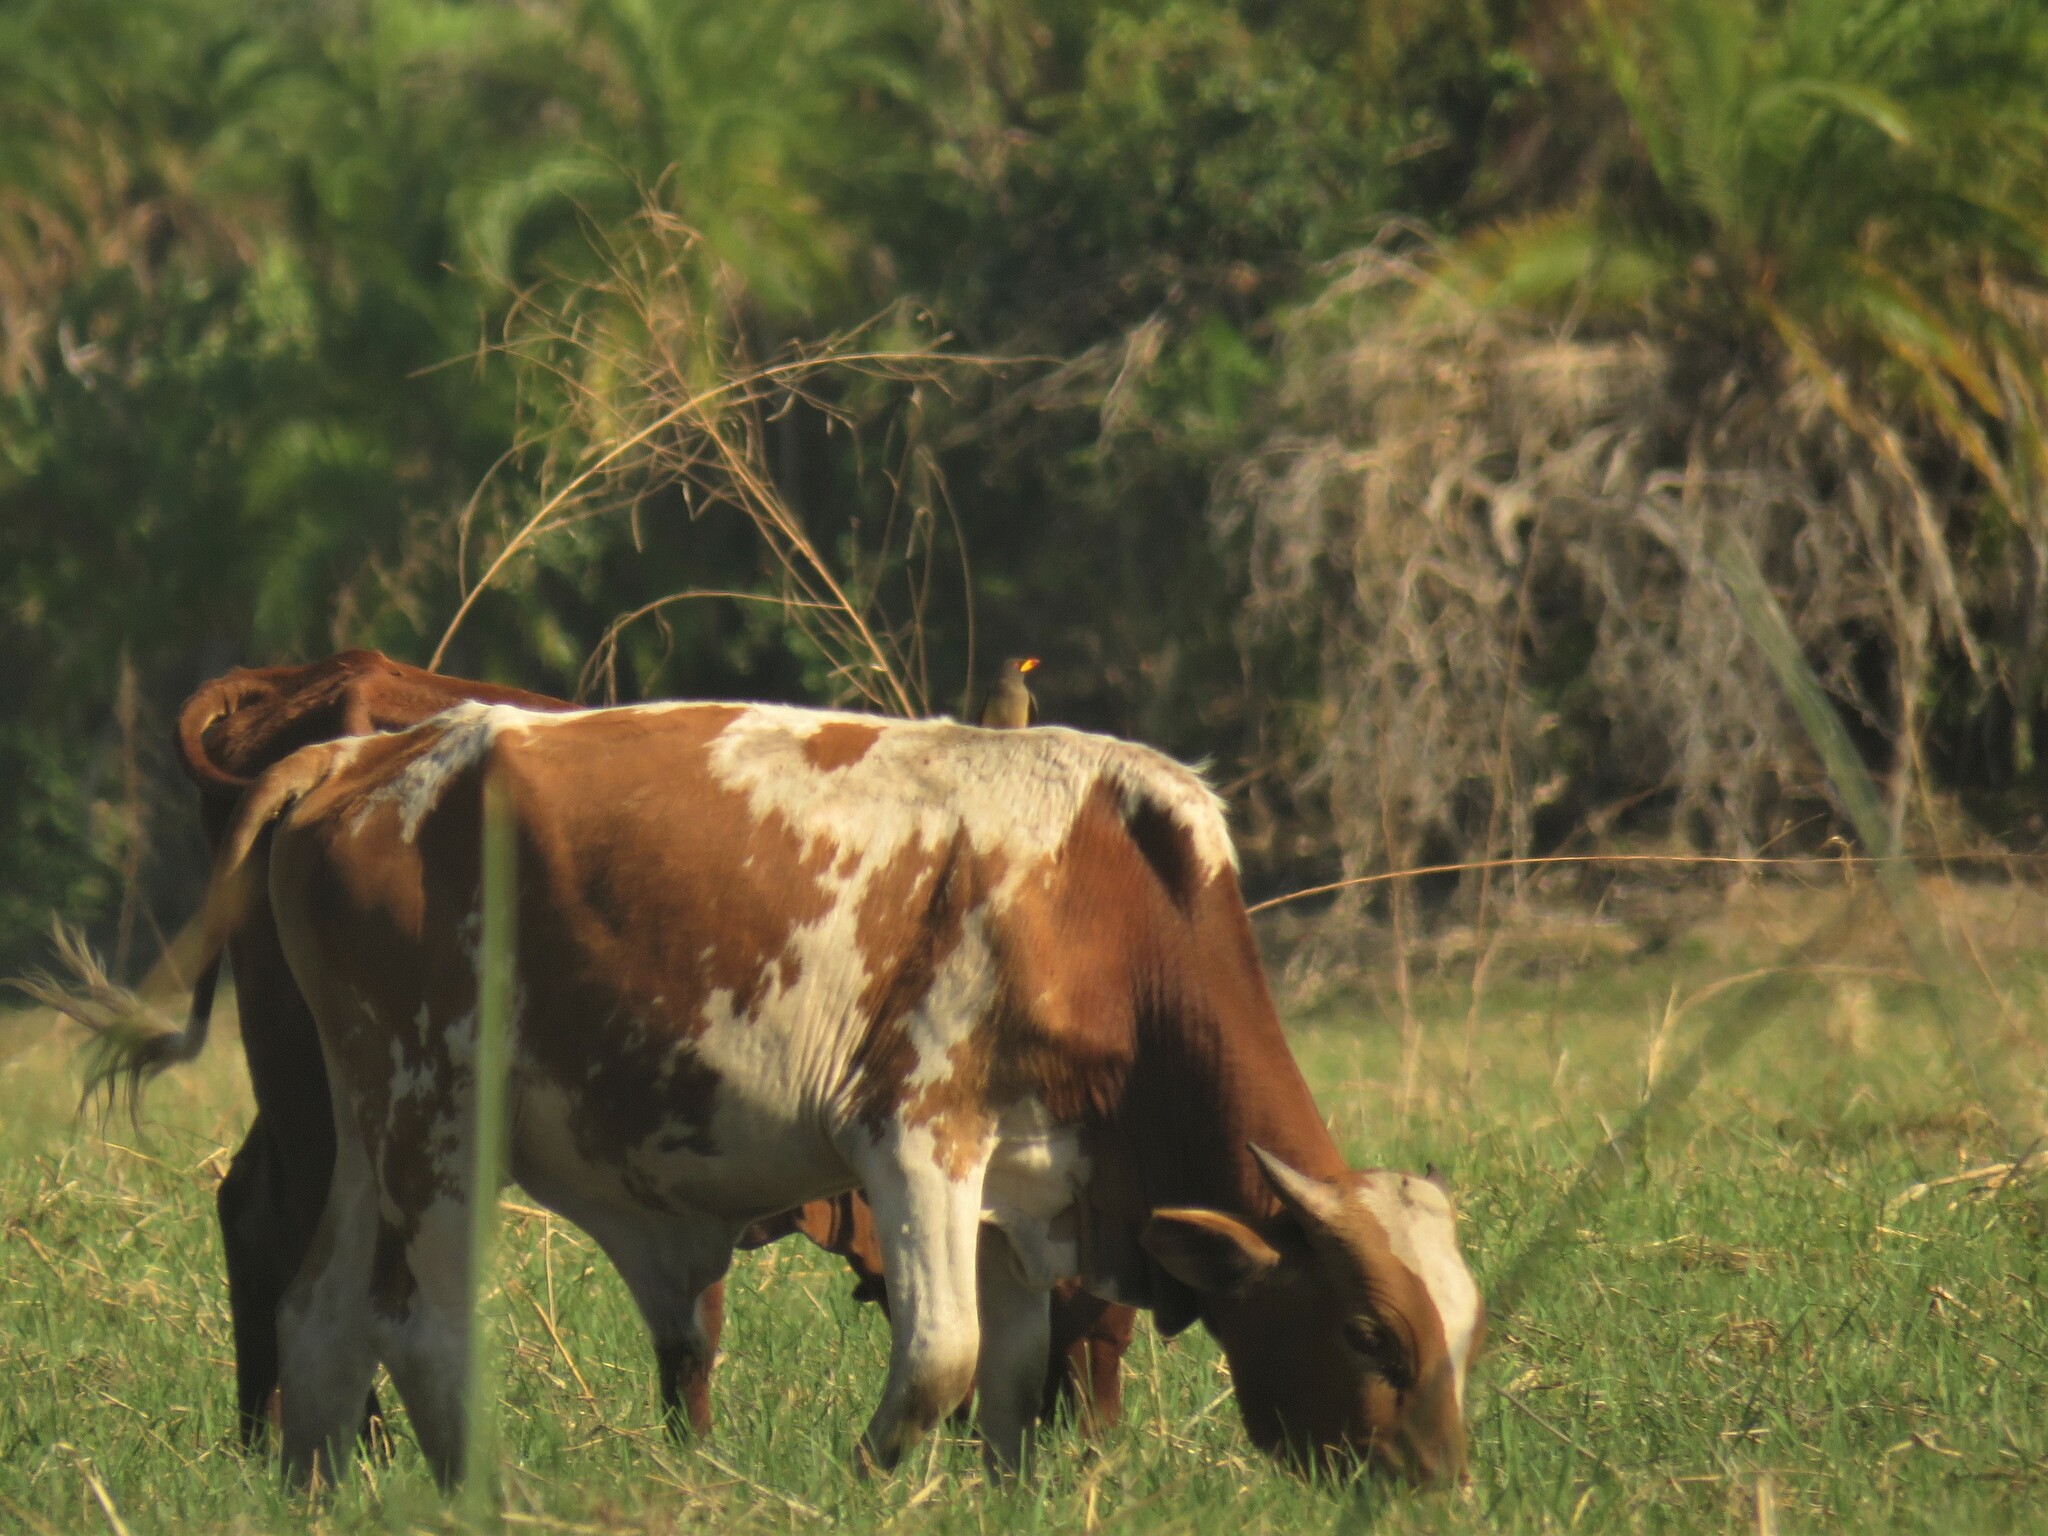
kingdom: Animalia
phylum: Chordata
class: Aves
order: Passeriformes
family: Buphagidae
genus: Buphagus
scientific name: Buphagus africanus
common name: Yellow-billed oxpecker
